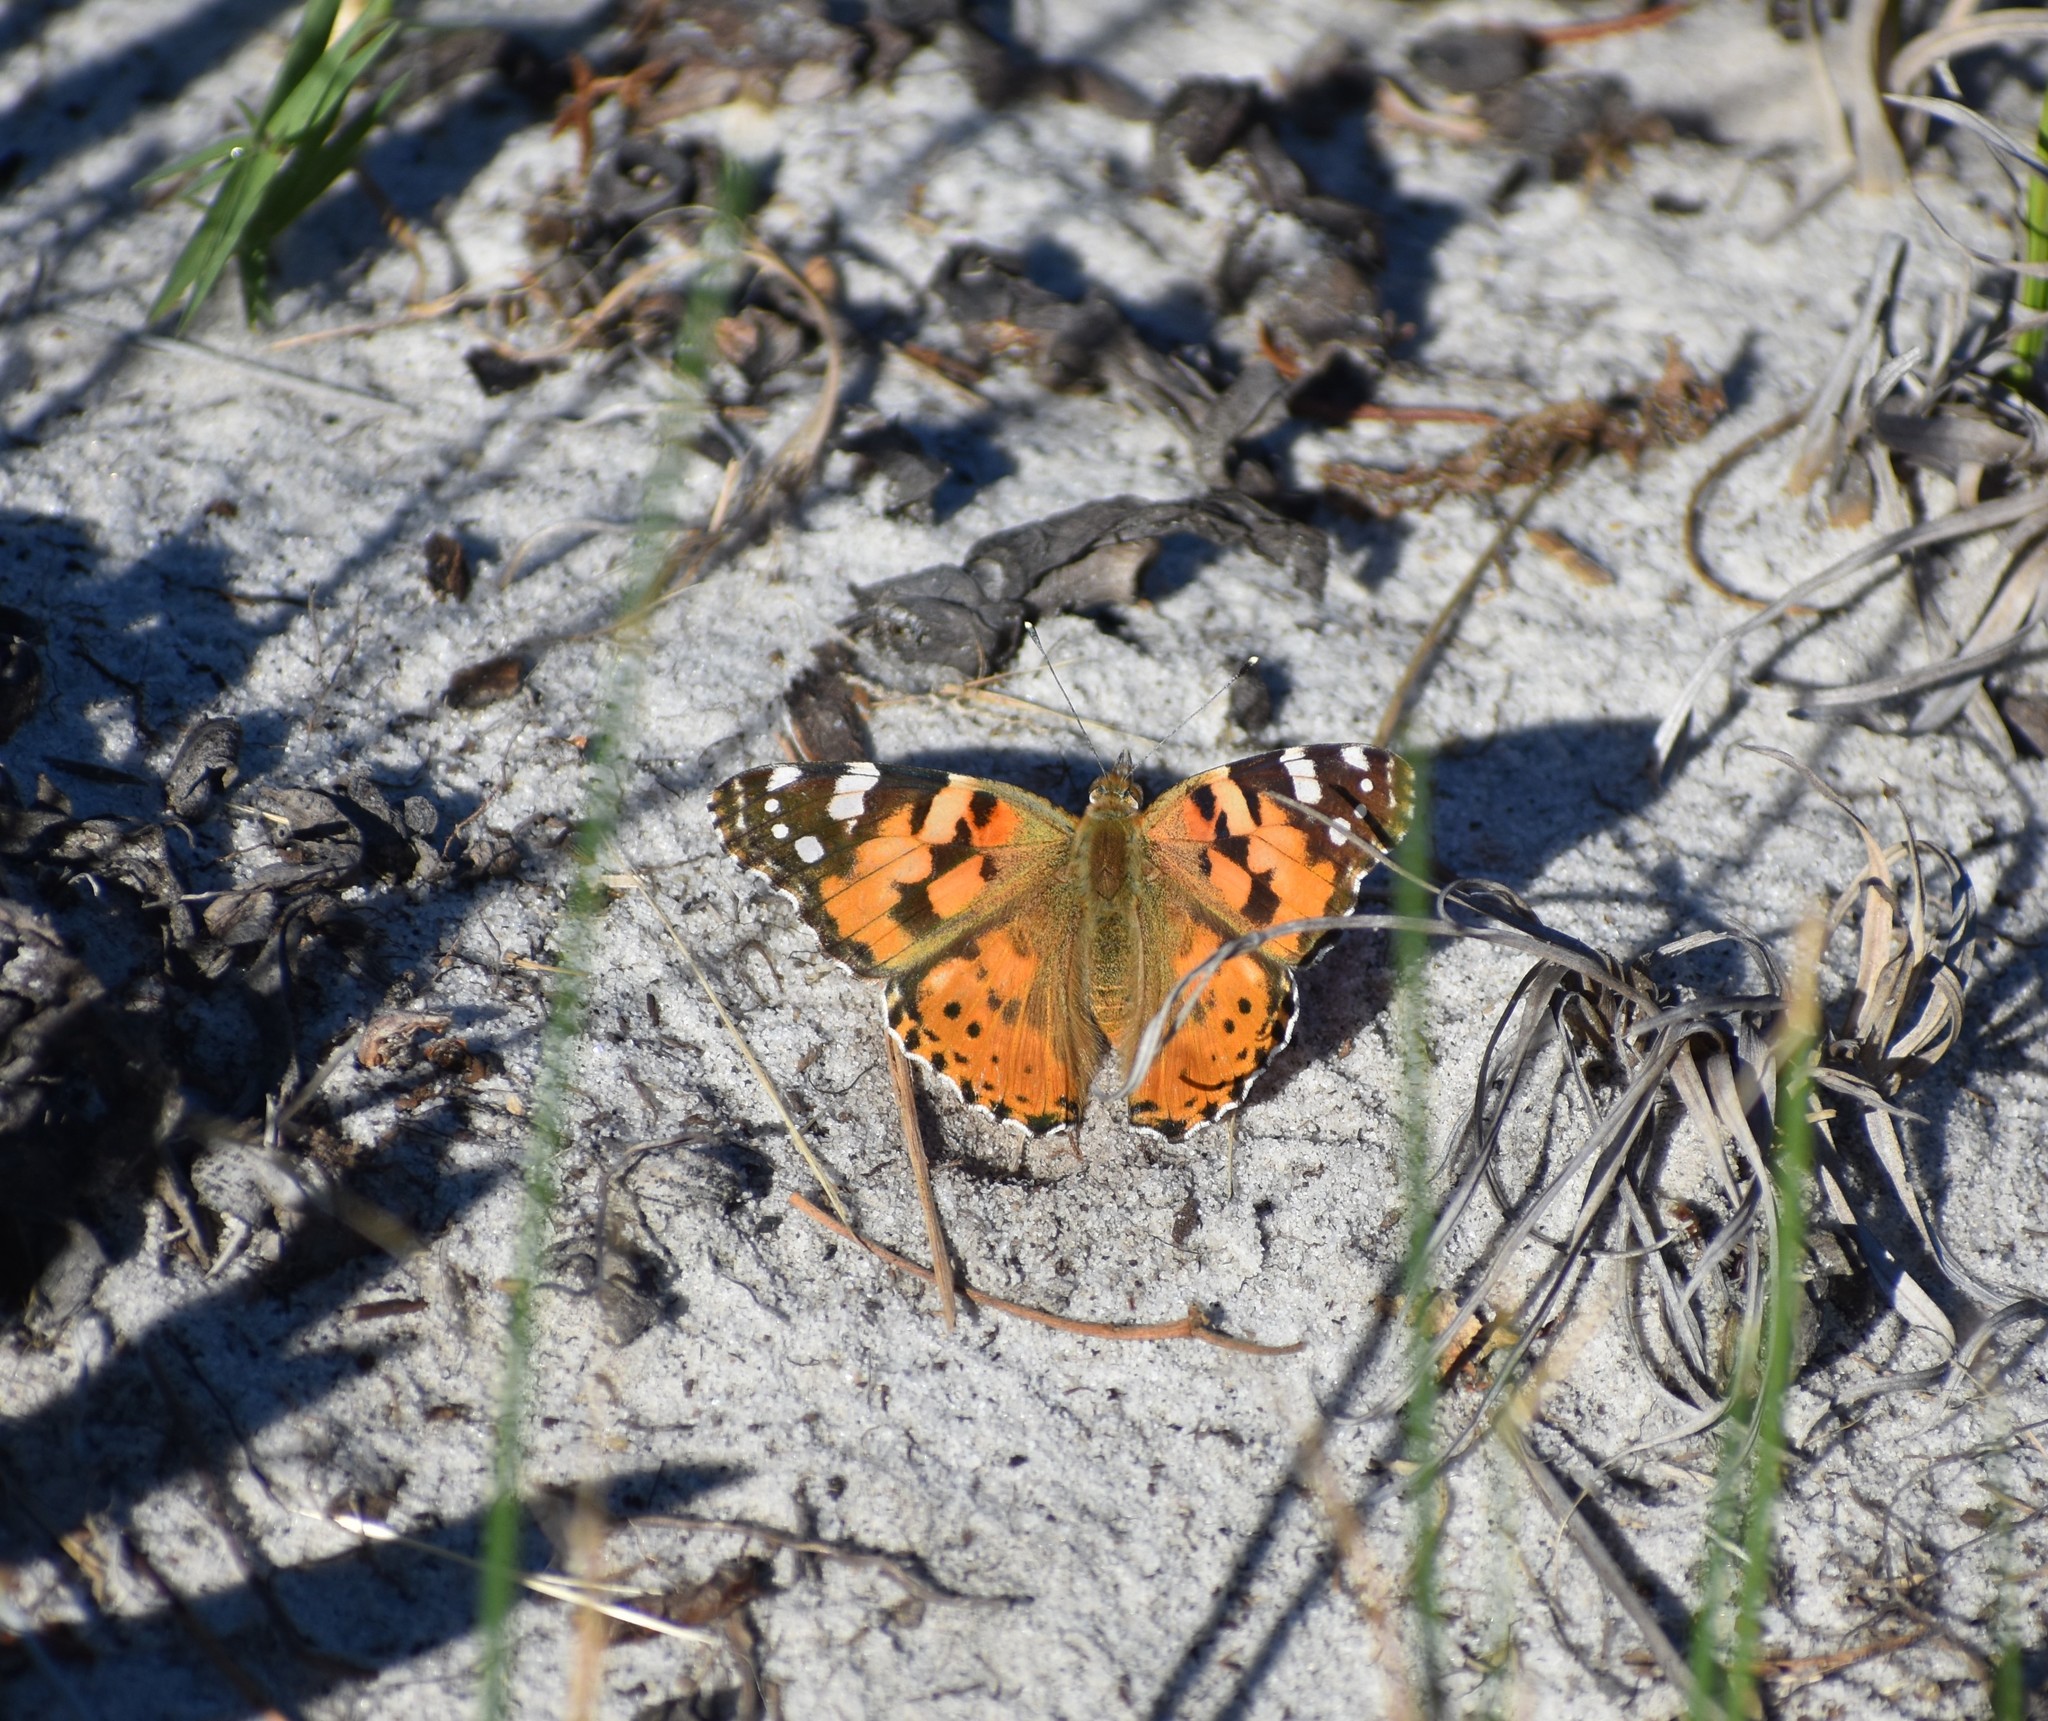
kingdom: Animalia
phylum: Arthropoda
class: Insecta
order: Lepidoptera
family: Nymphalidae
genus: Vanessa
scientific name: Vanessa cardui
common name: Painted lady
